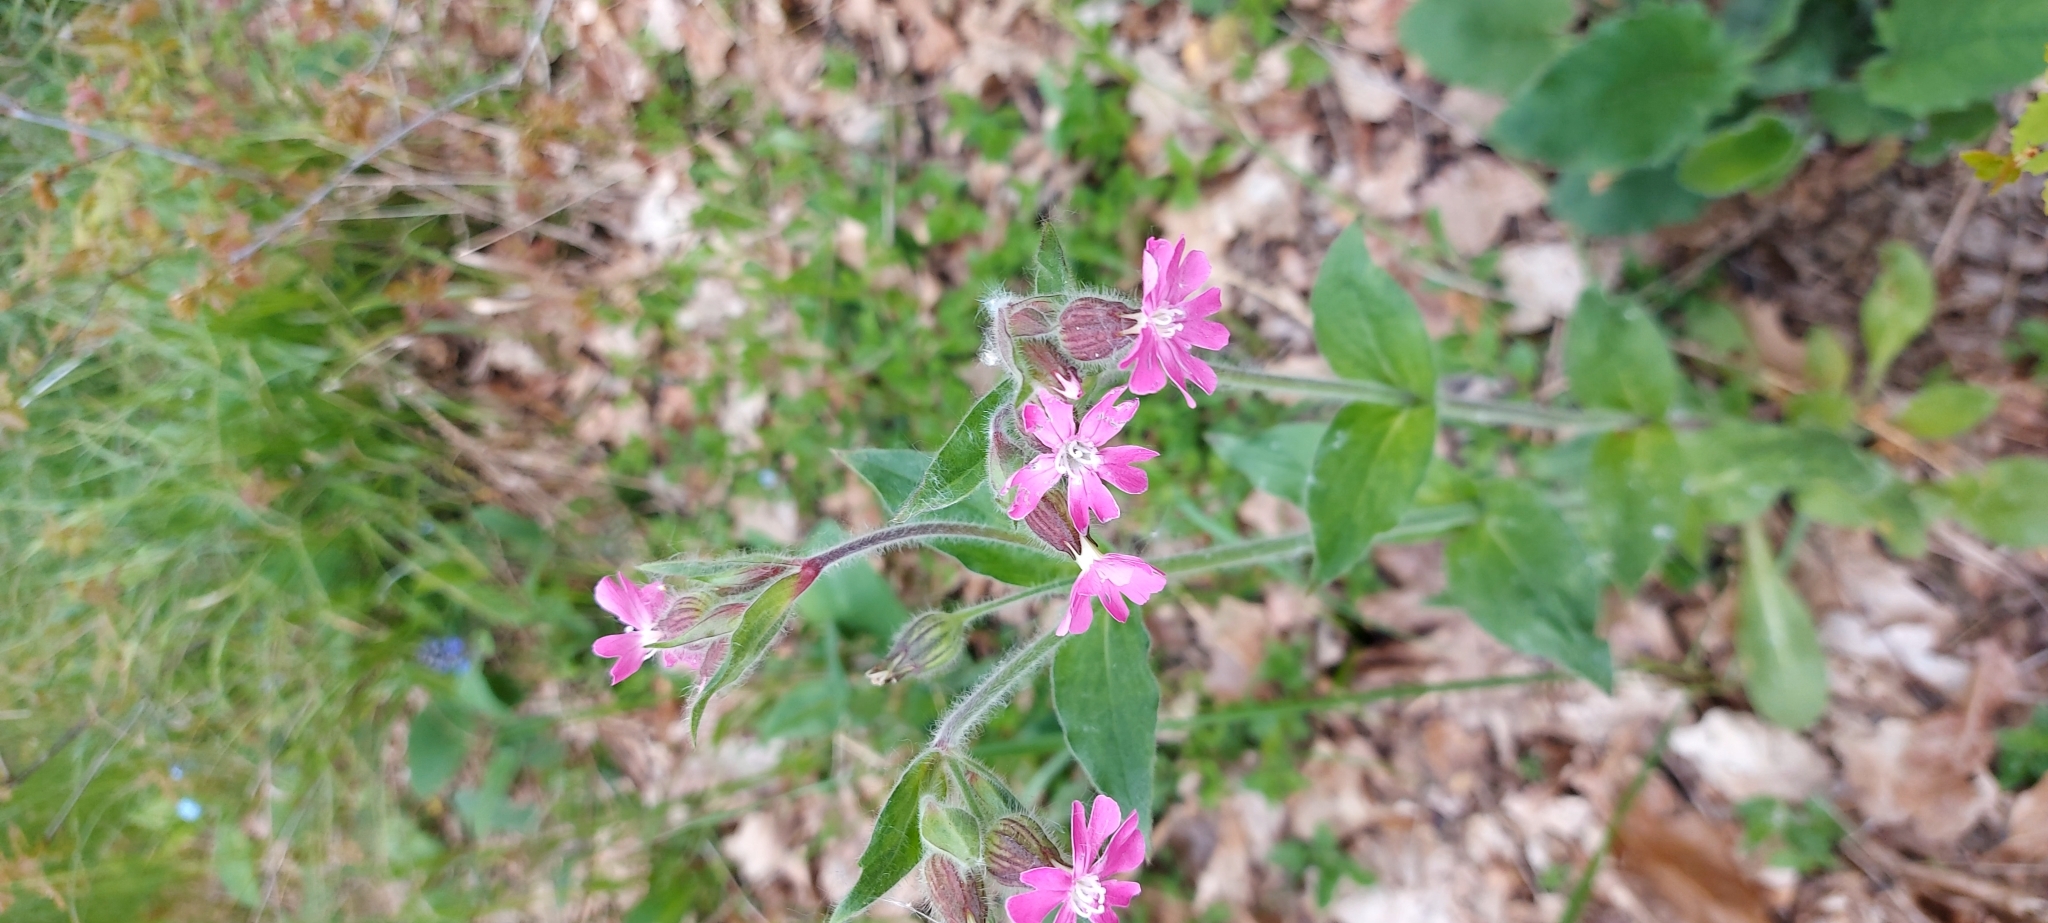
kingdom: Plantae
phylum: Tracheophyta
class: Magnoliopsida
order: Caryophyllales
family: Caryophyllaceae
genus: Silene
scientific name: Silene dioica
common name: Red campion
